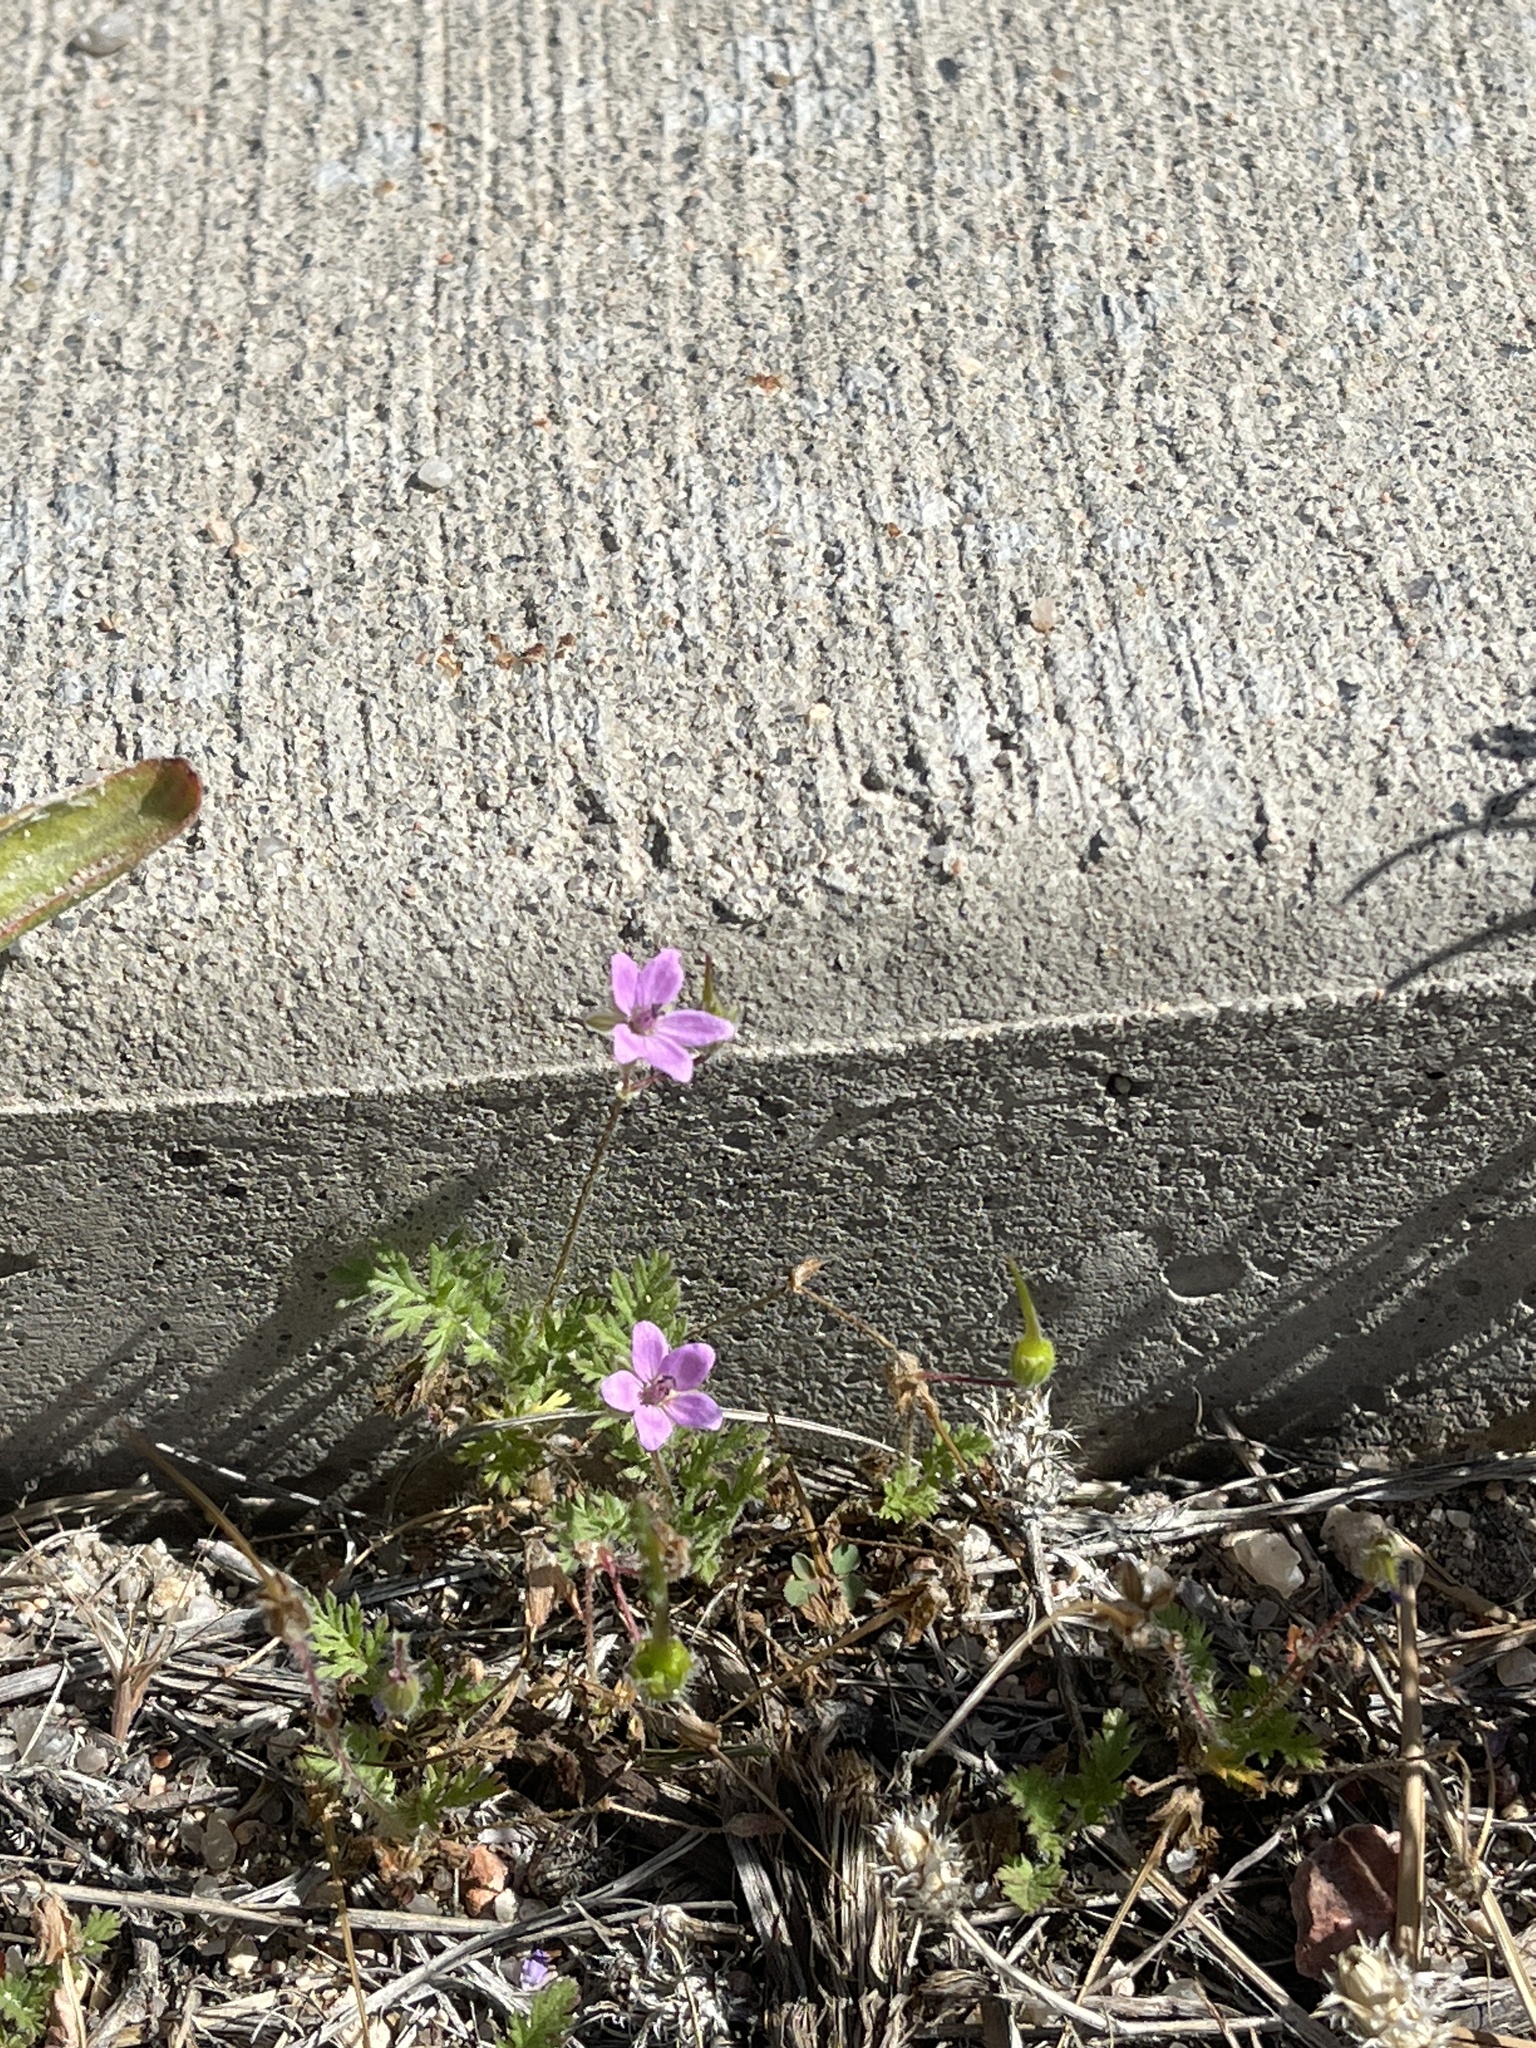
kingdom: Plantae
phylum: Tracheophyta
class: Magnoliopsida
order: Geraniales
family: Geraniaceae
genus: Erodium
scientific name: Erodium cicutarium
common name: Common stork's-bill
